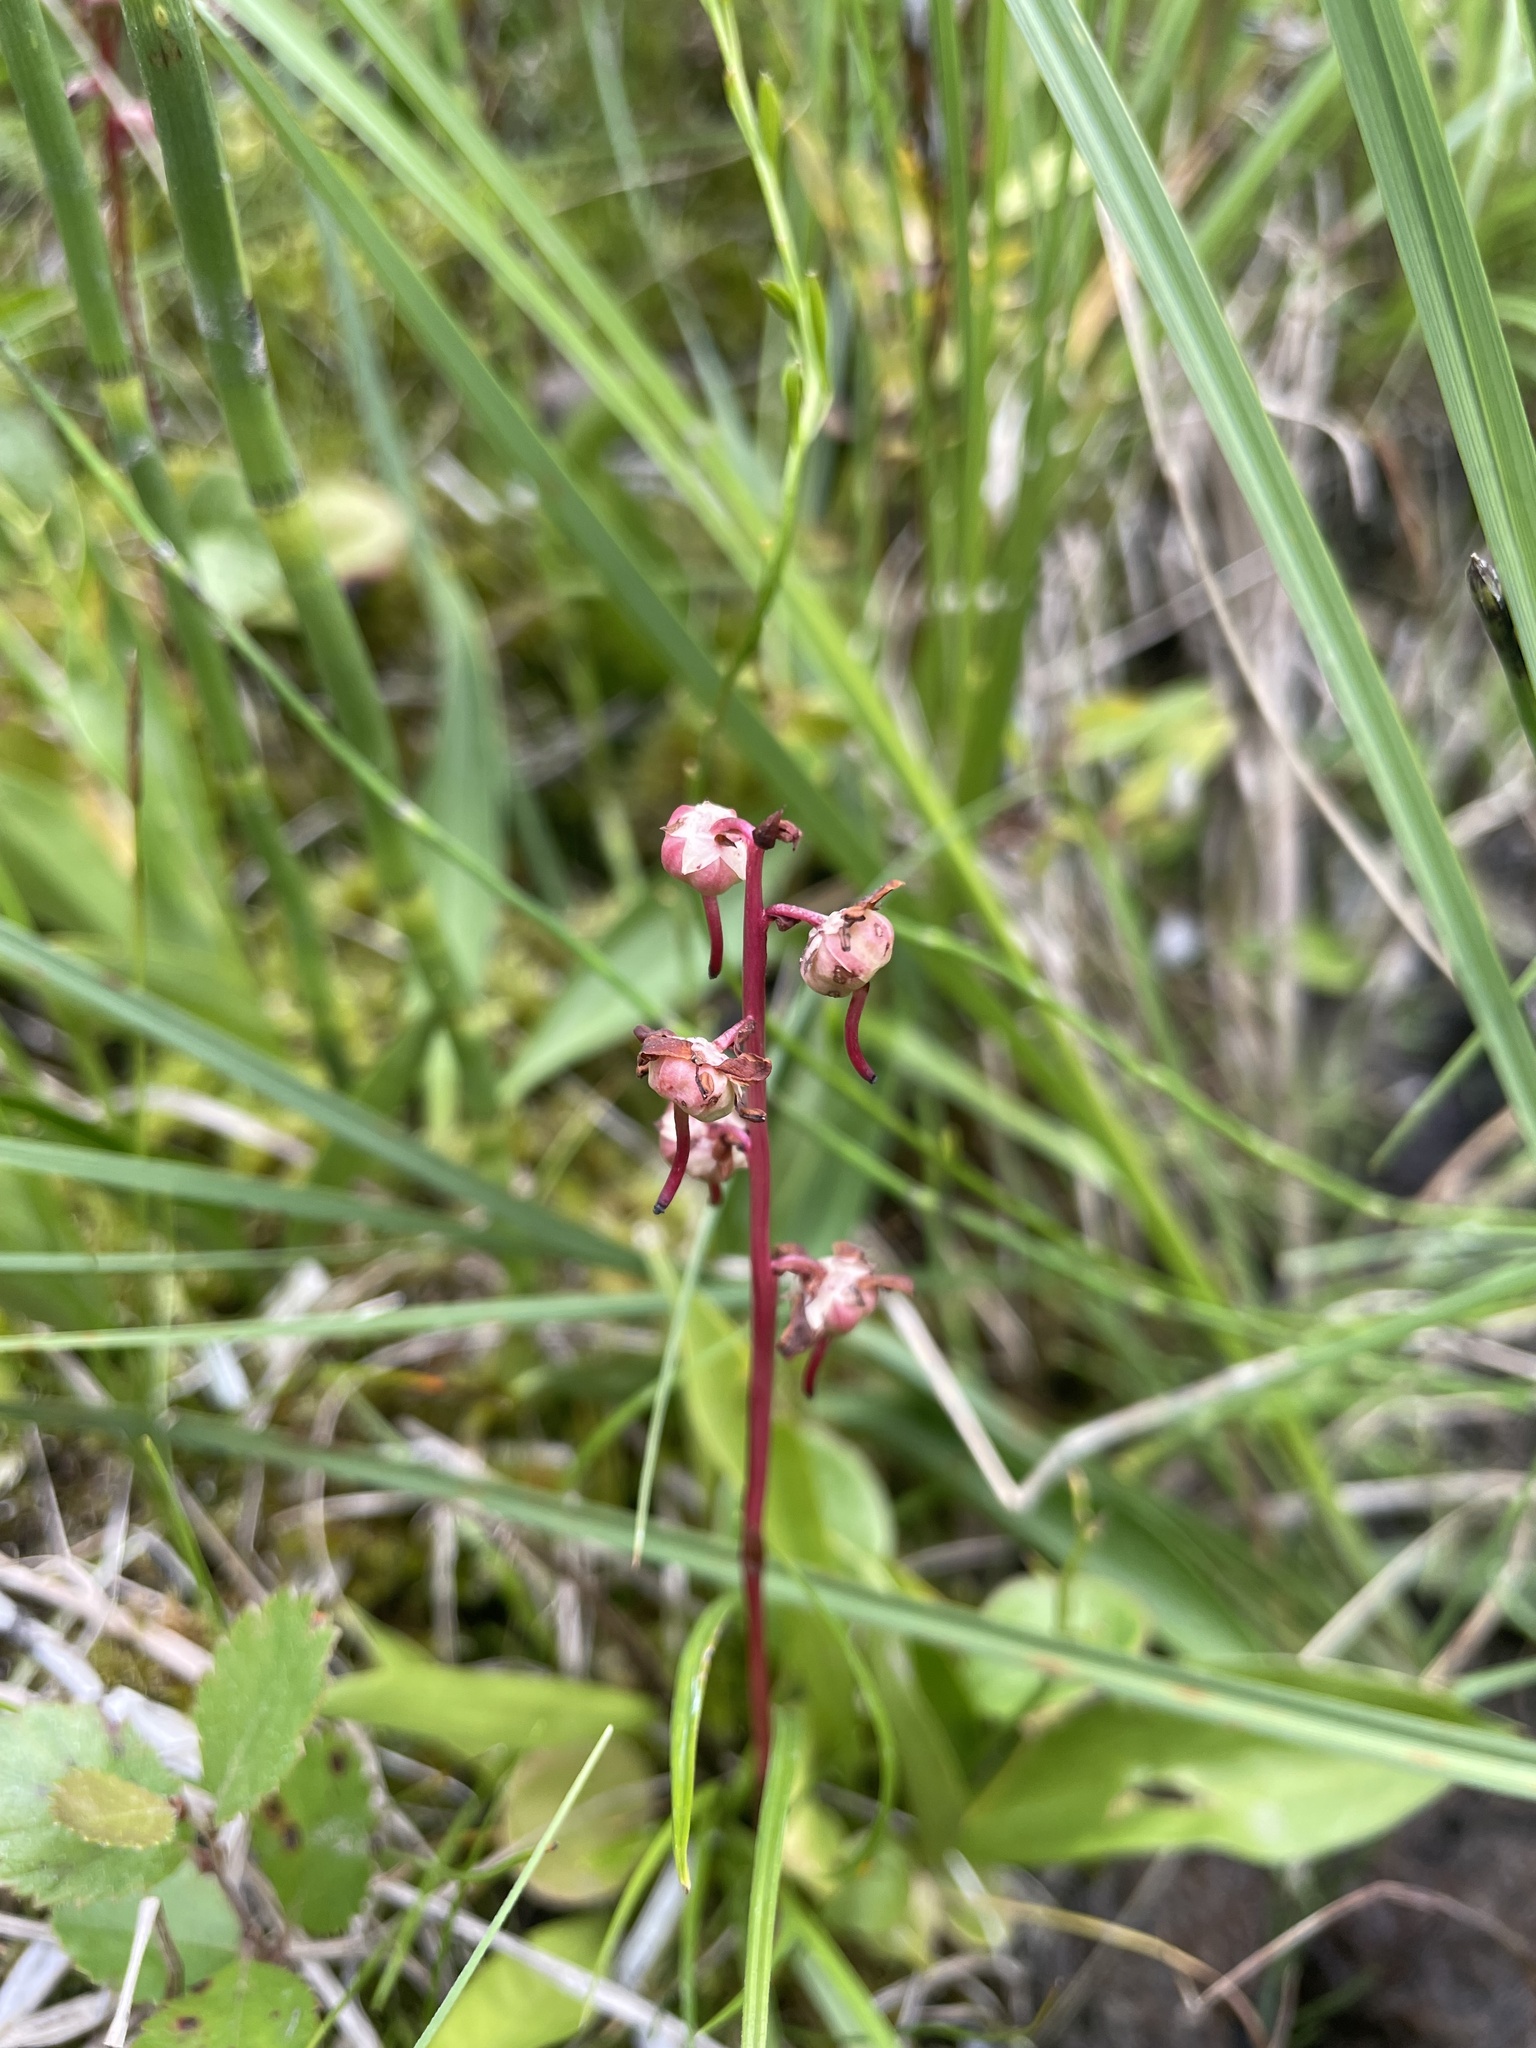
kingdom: Plantae
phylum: Tracheophyta
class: Magnoliopsida
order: Ericales
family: Ericaceae
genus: Pyrola
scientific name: Pyrola asarifolia
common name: Bog wintergreen
